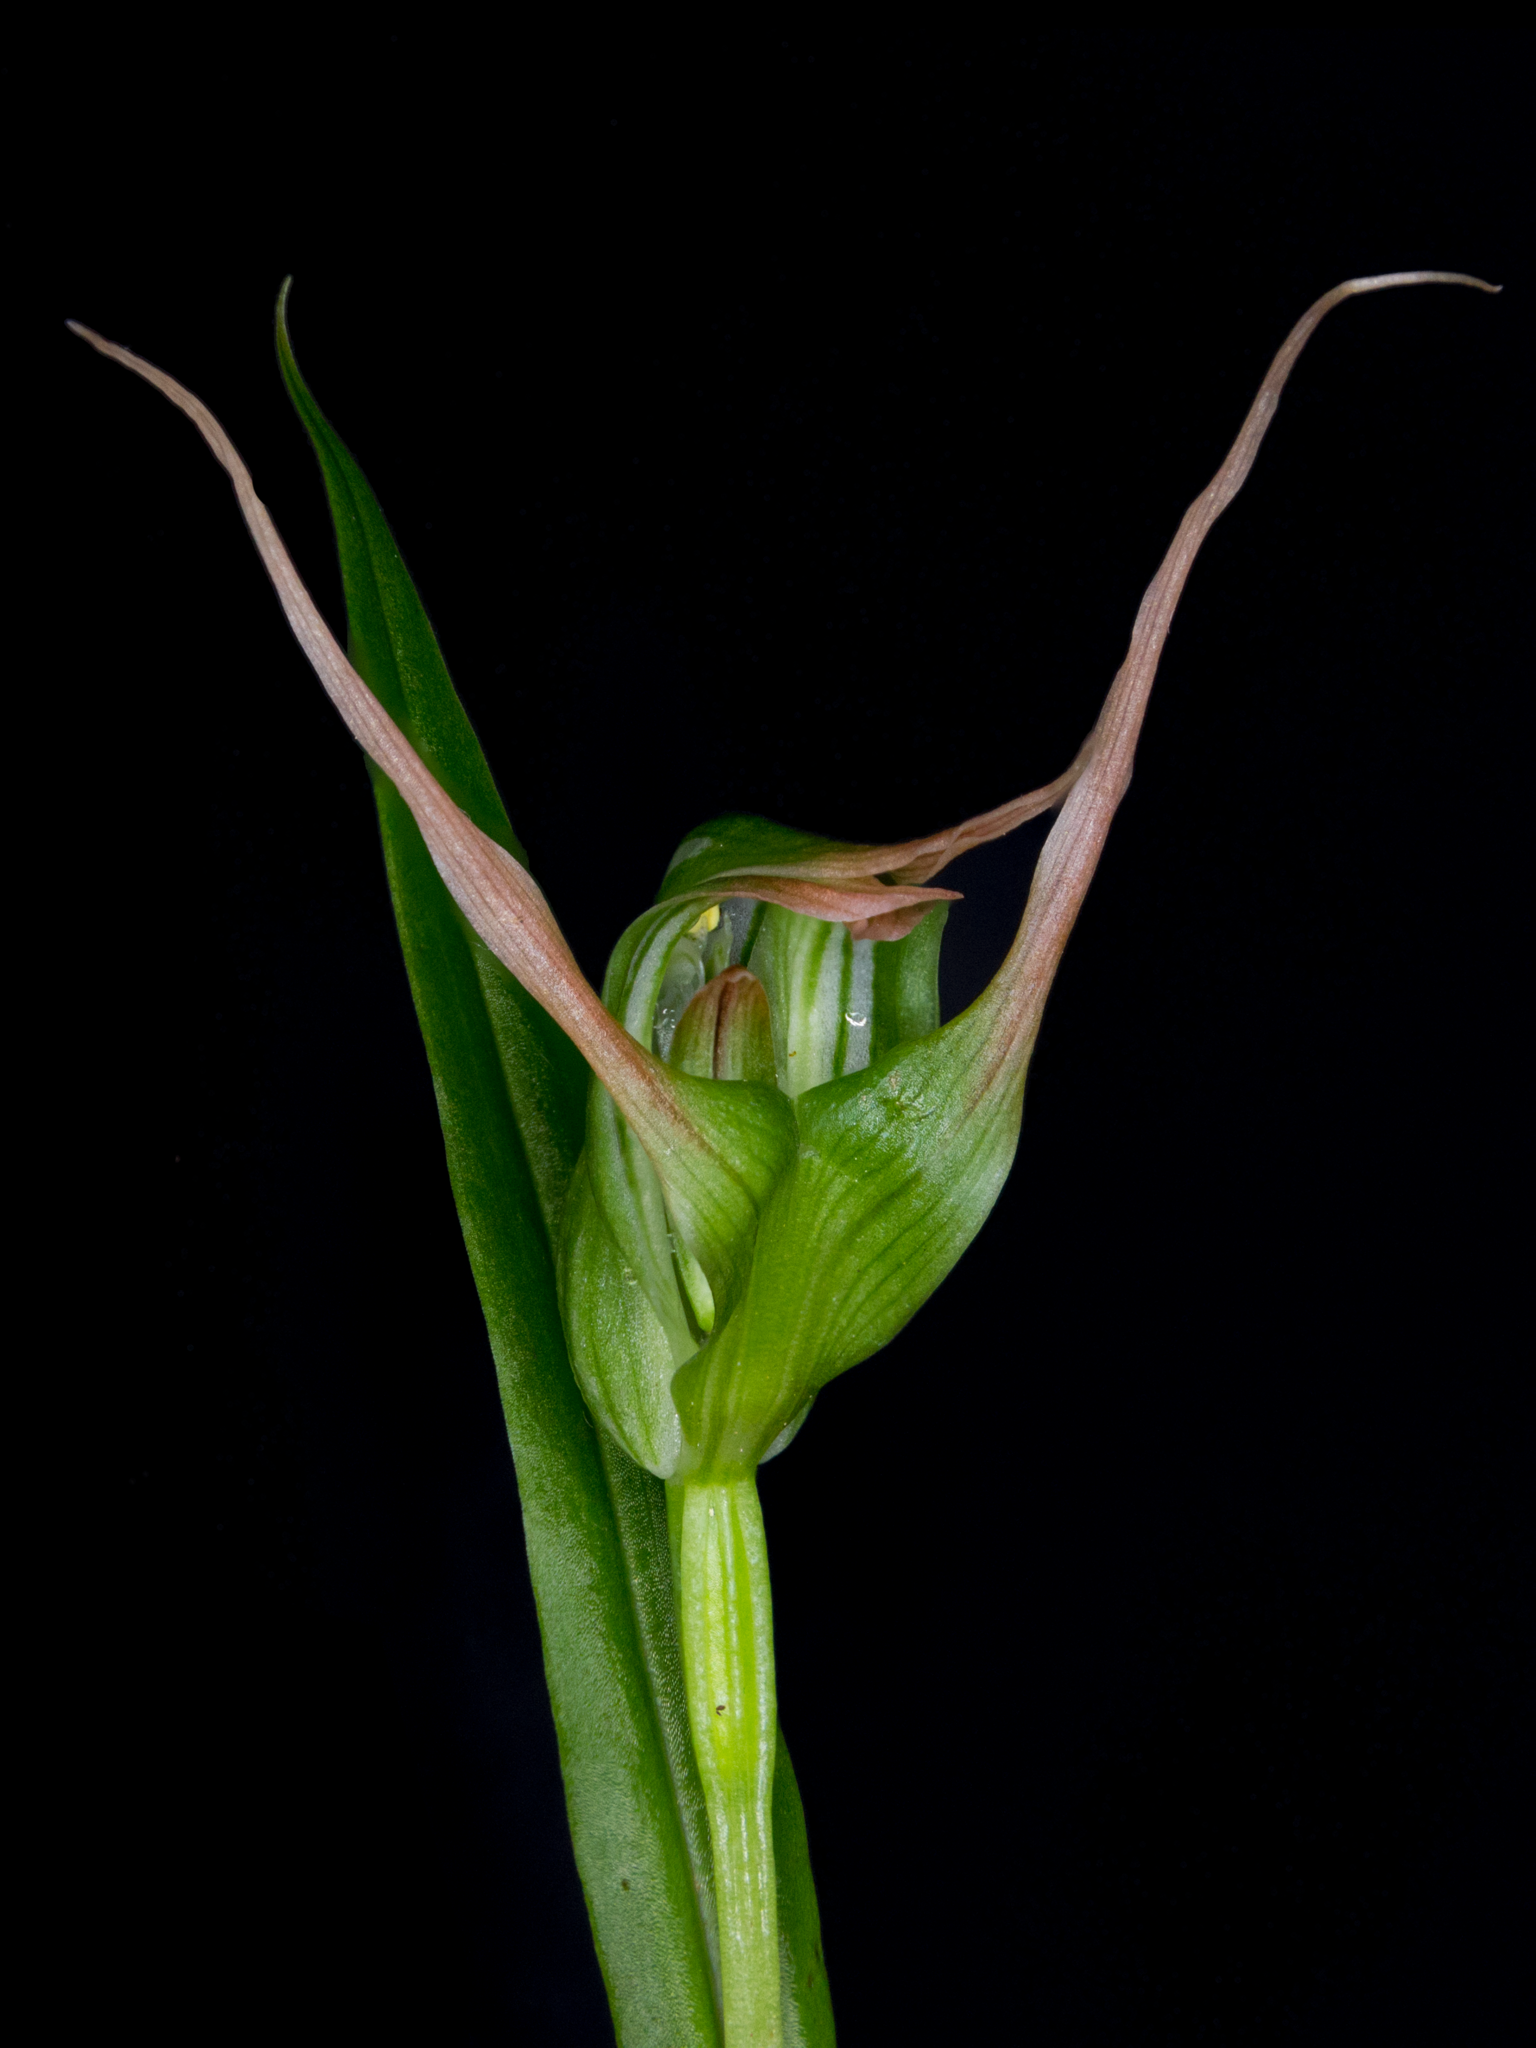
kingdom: Plantae
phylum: Tracheophyta
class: Liliopsida
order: Asparagales
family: Orchidaceae
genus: Pterostylis
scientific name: Pterostylis banksii
